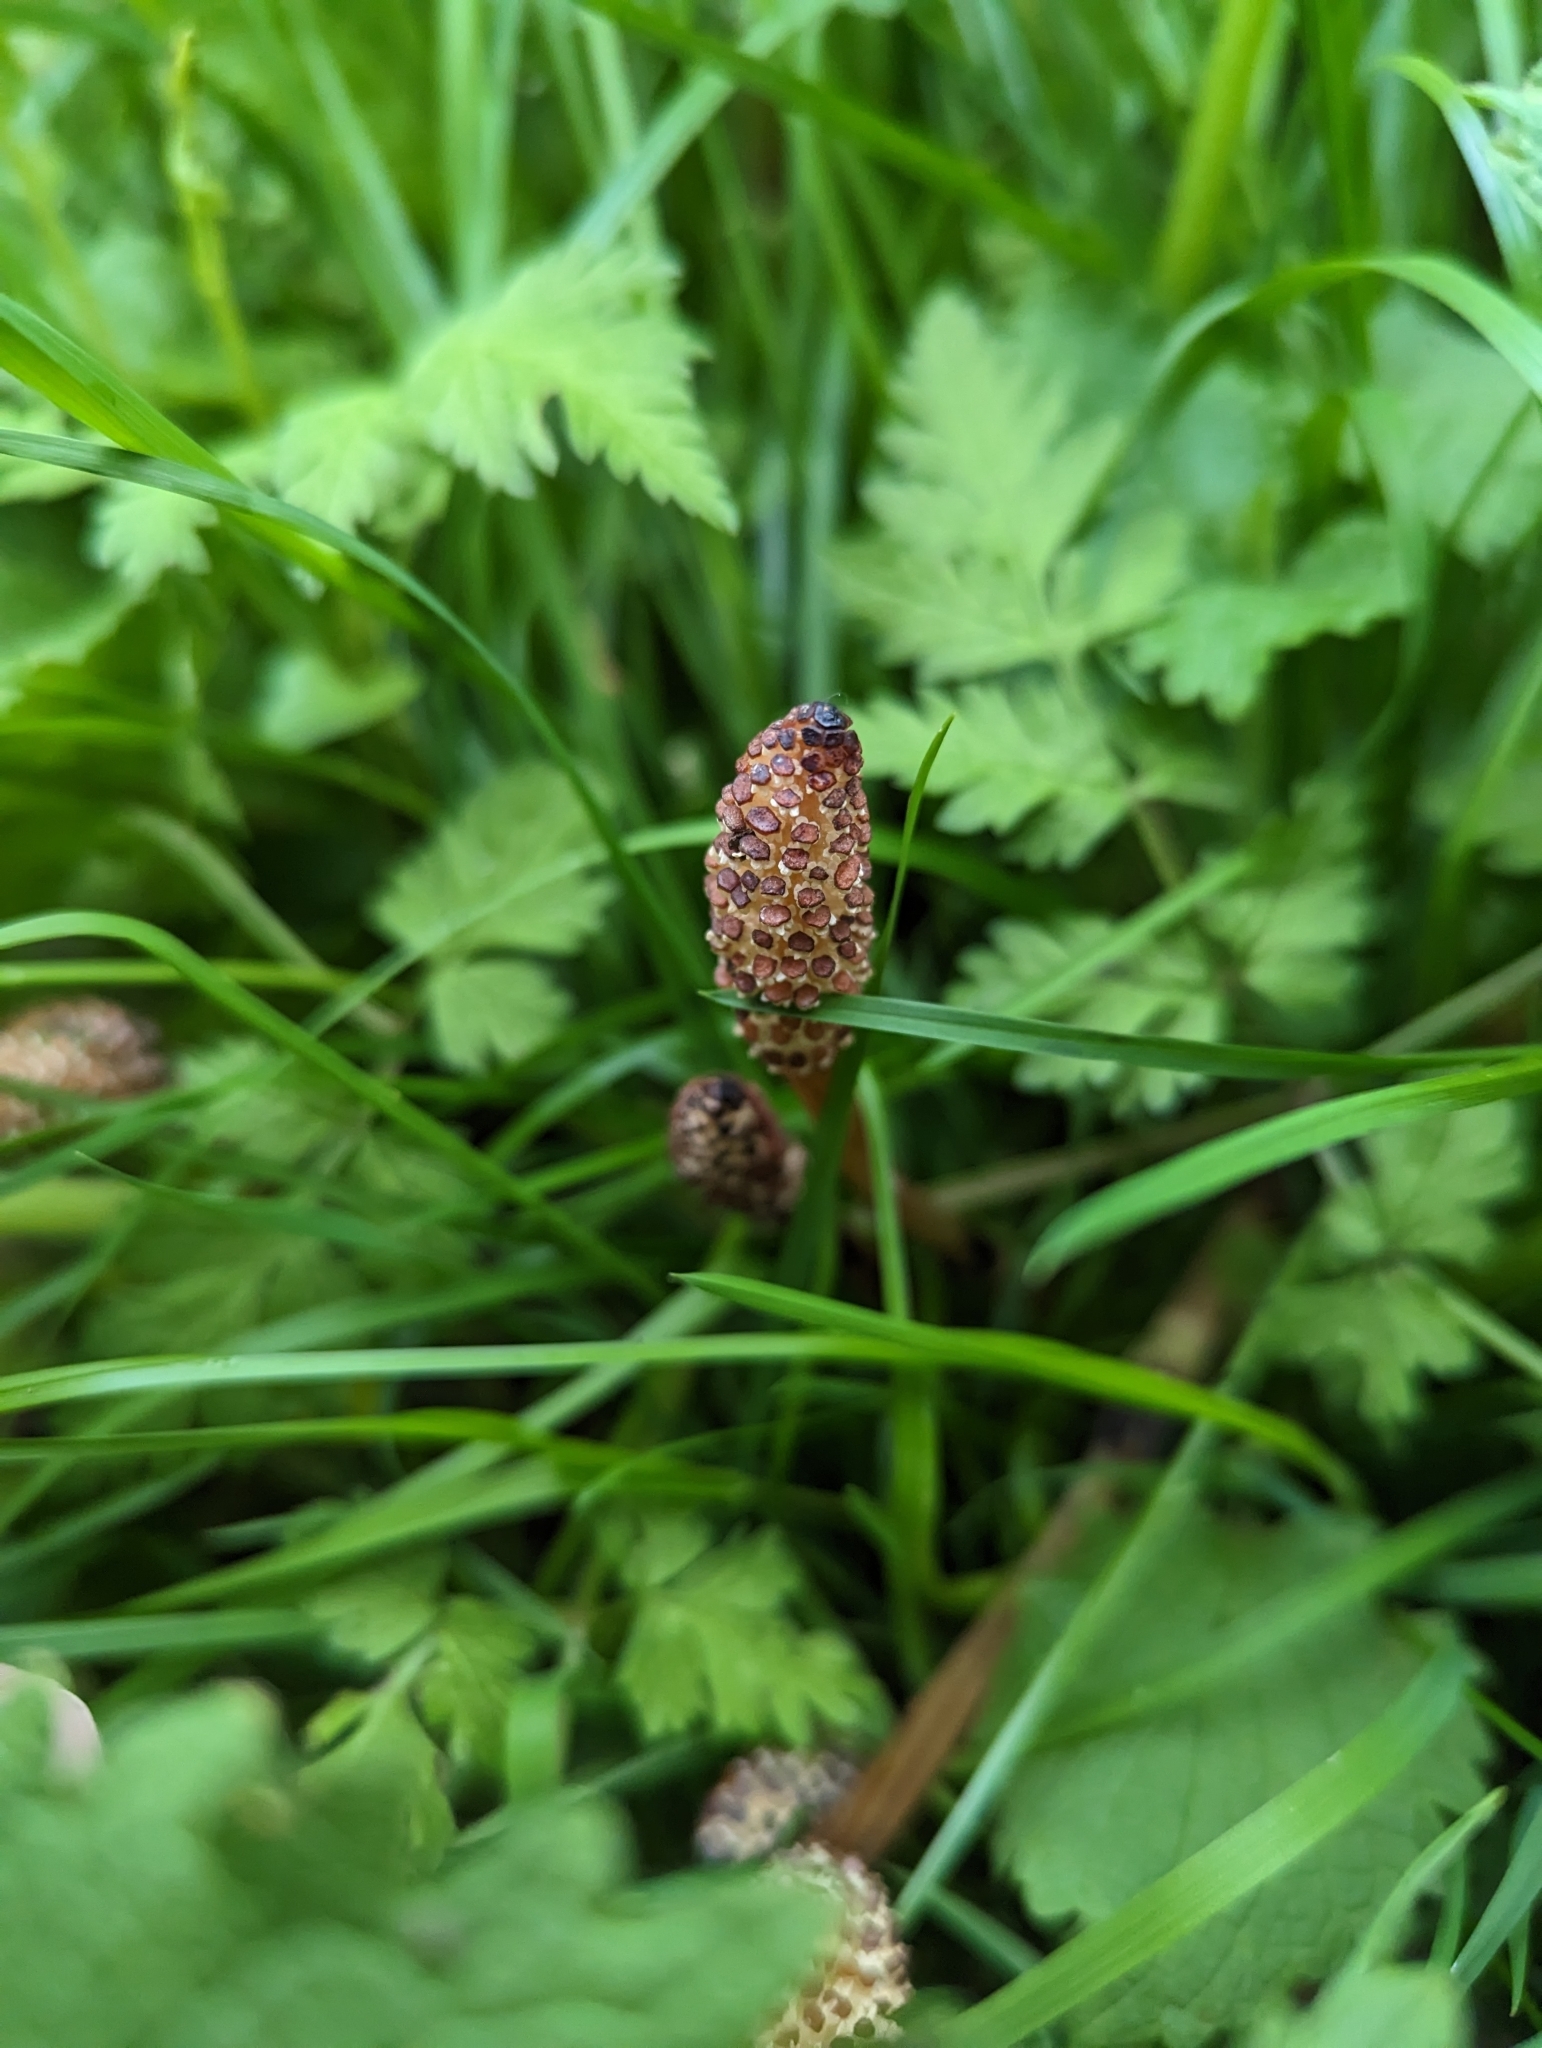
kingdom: Plantae
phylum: Tracheophyta
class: Polypodiopsida
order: Equisetales
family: Equisetaceae
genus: Equisetum
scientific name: Equisetum arvense
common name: Field horsetail
